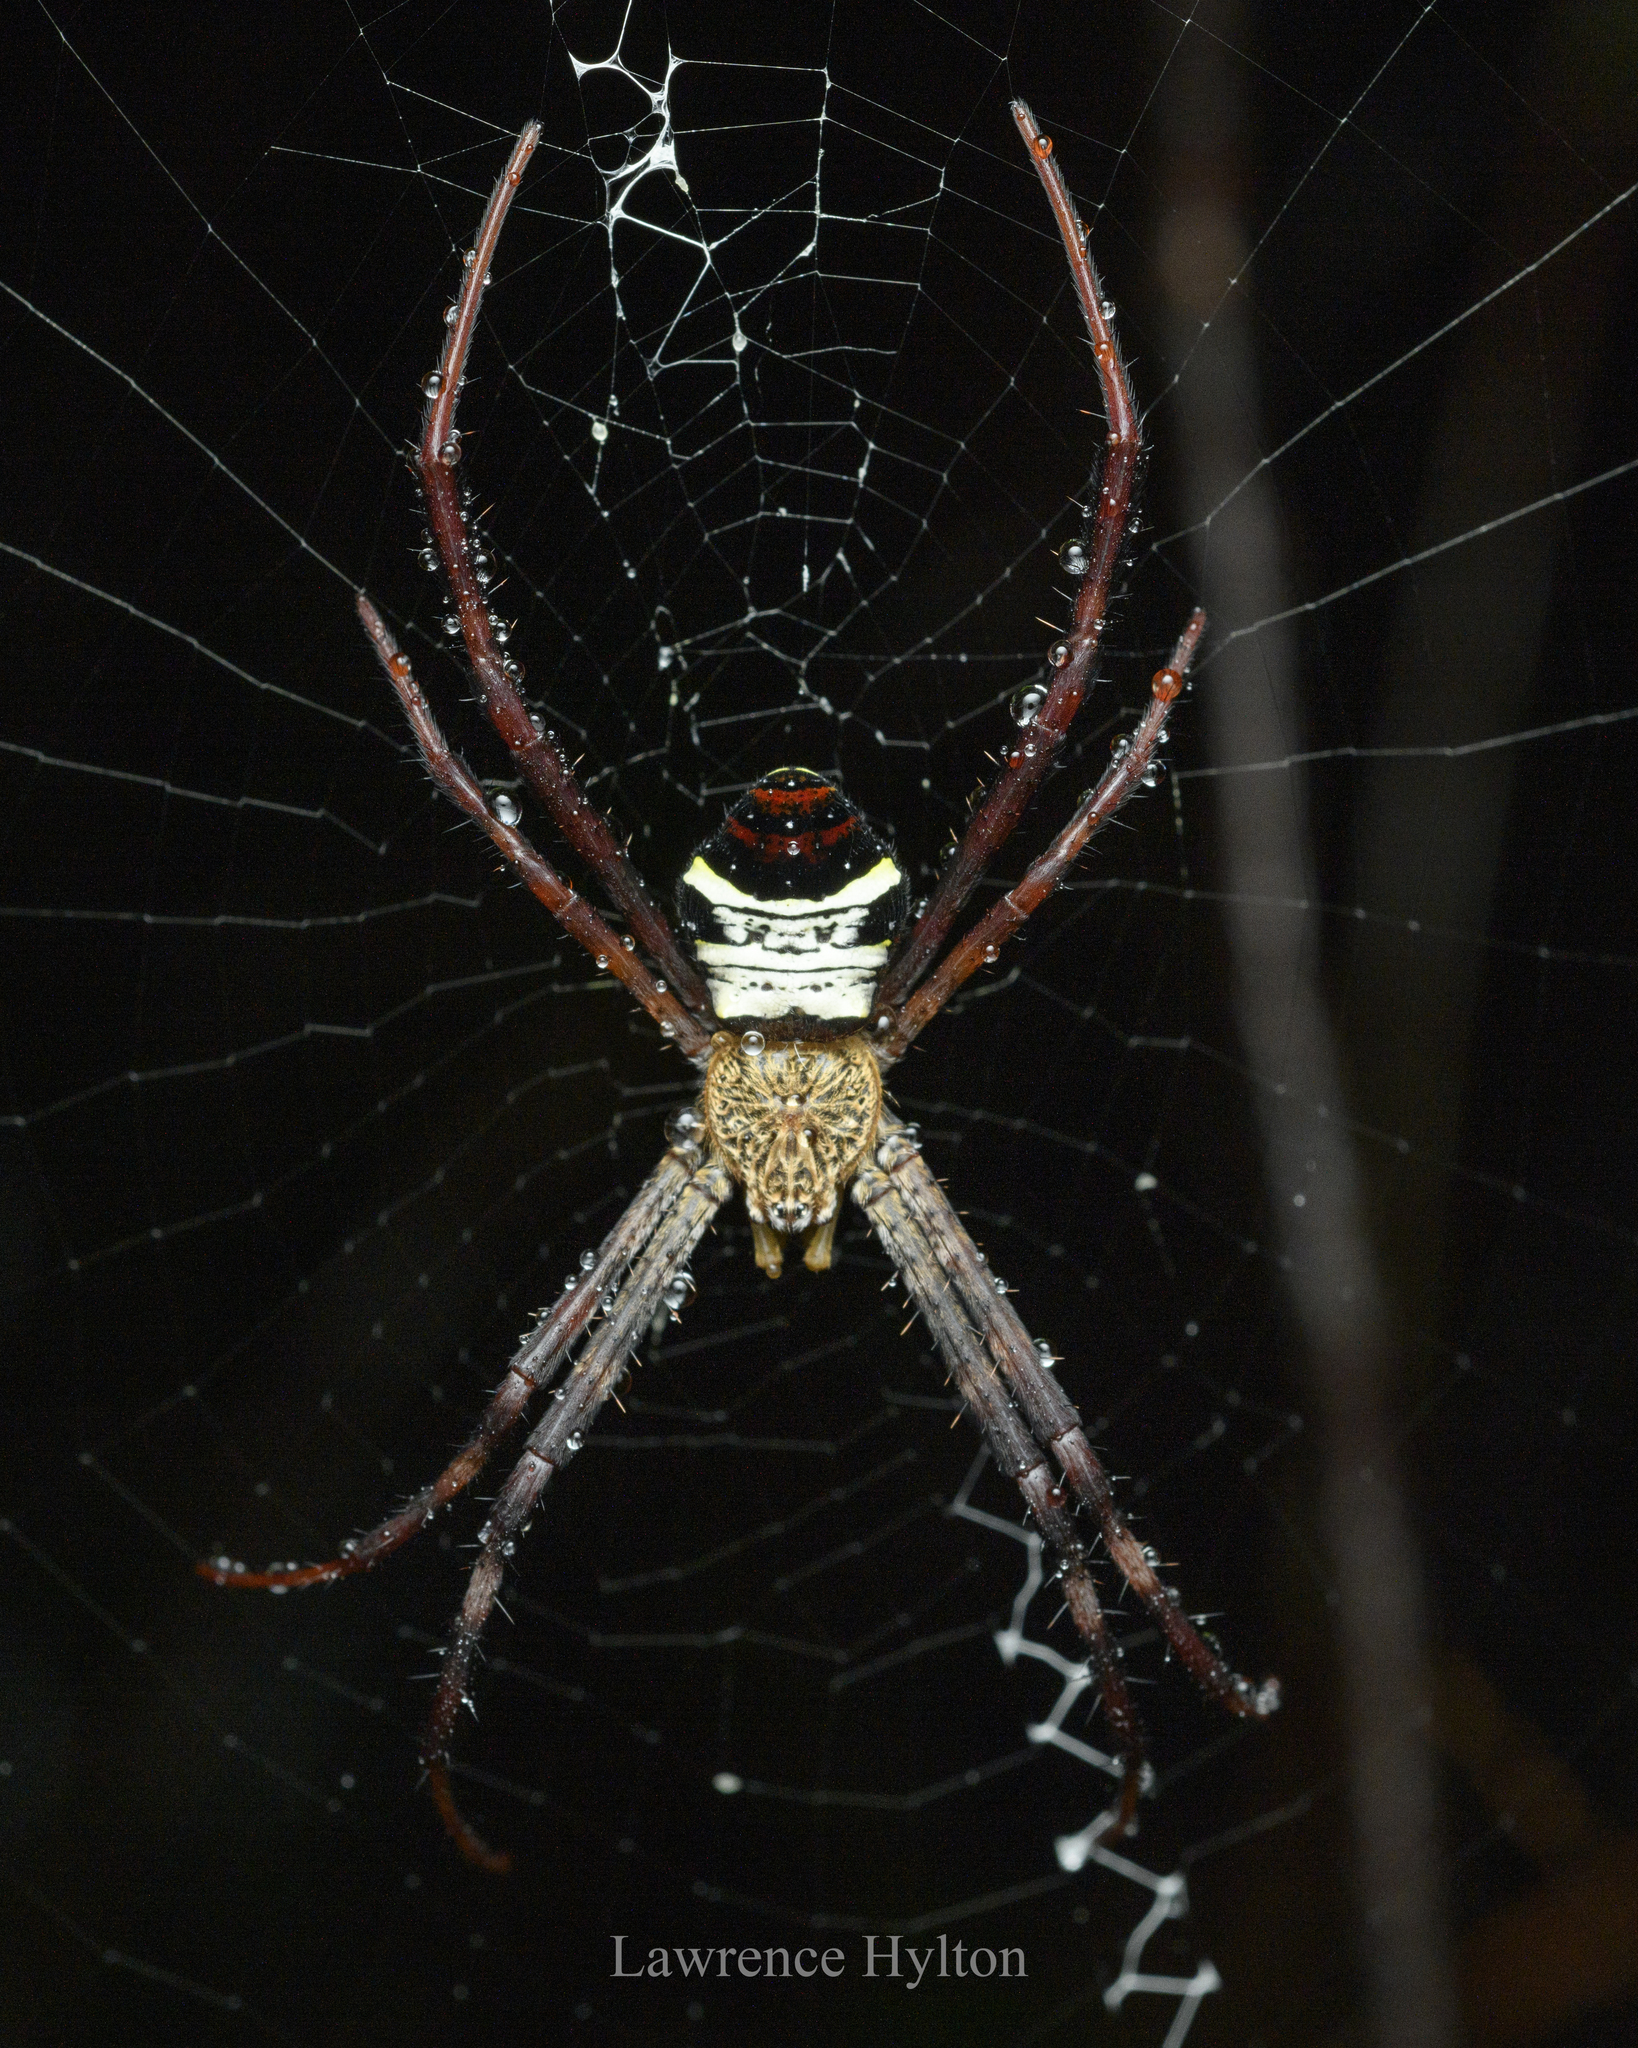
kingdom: Animalia
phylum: Arthropoda
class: Arachnida
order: Araneae
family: Araneidae
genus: Argiope
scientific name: Argiope vietnamensis
